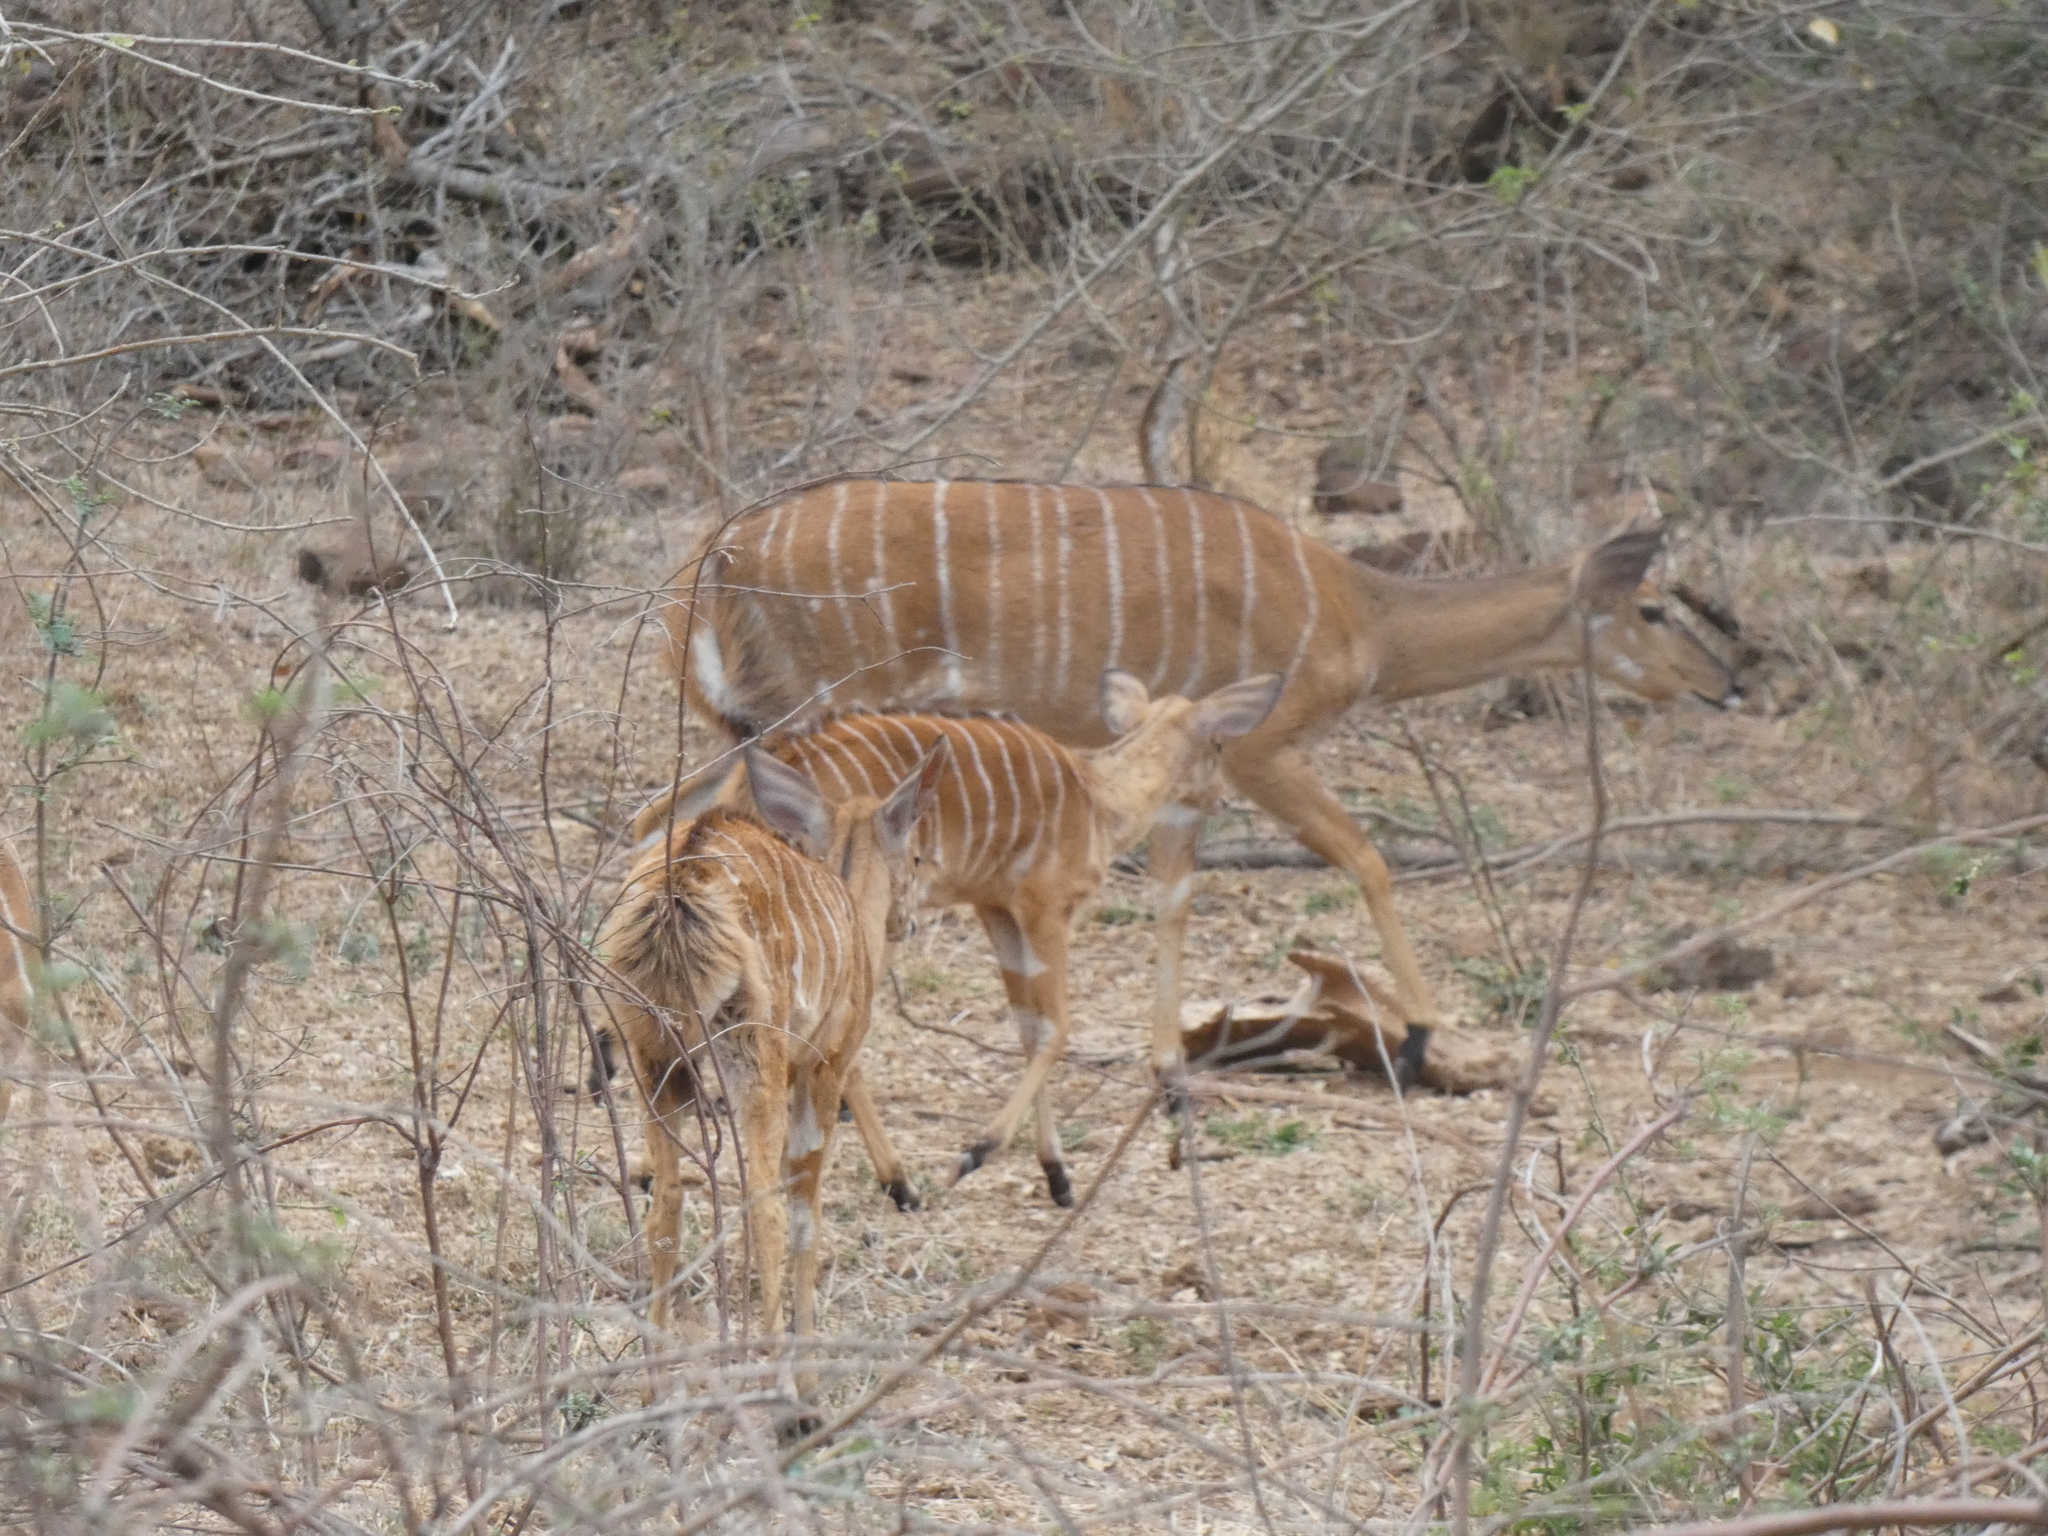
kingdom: Animalia
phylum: Chordata
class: Mammalia
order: Artiodactyla
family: Bovidae
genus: Tragelaphus
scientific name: Tragelaphus angasii
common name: Nyala
